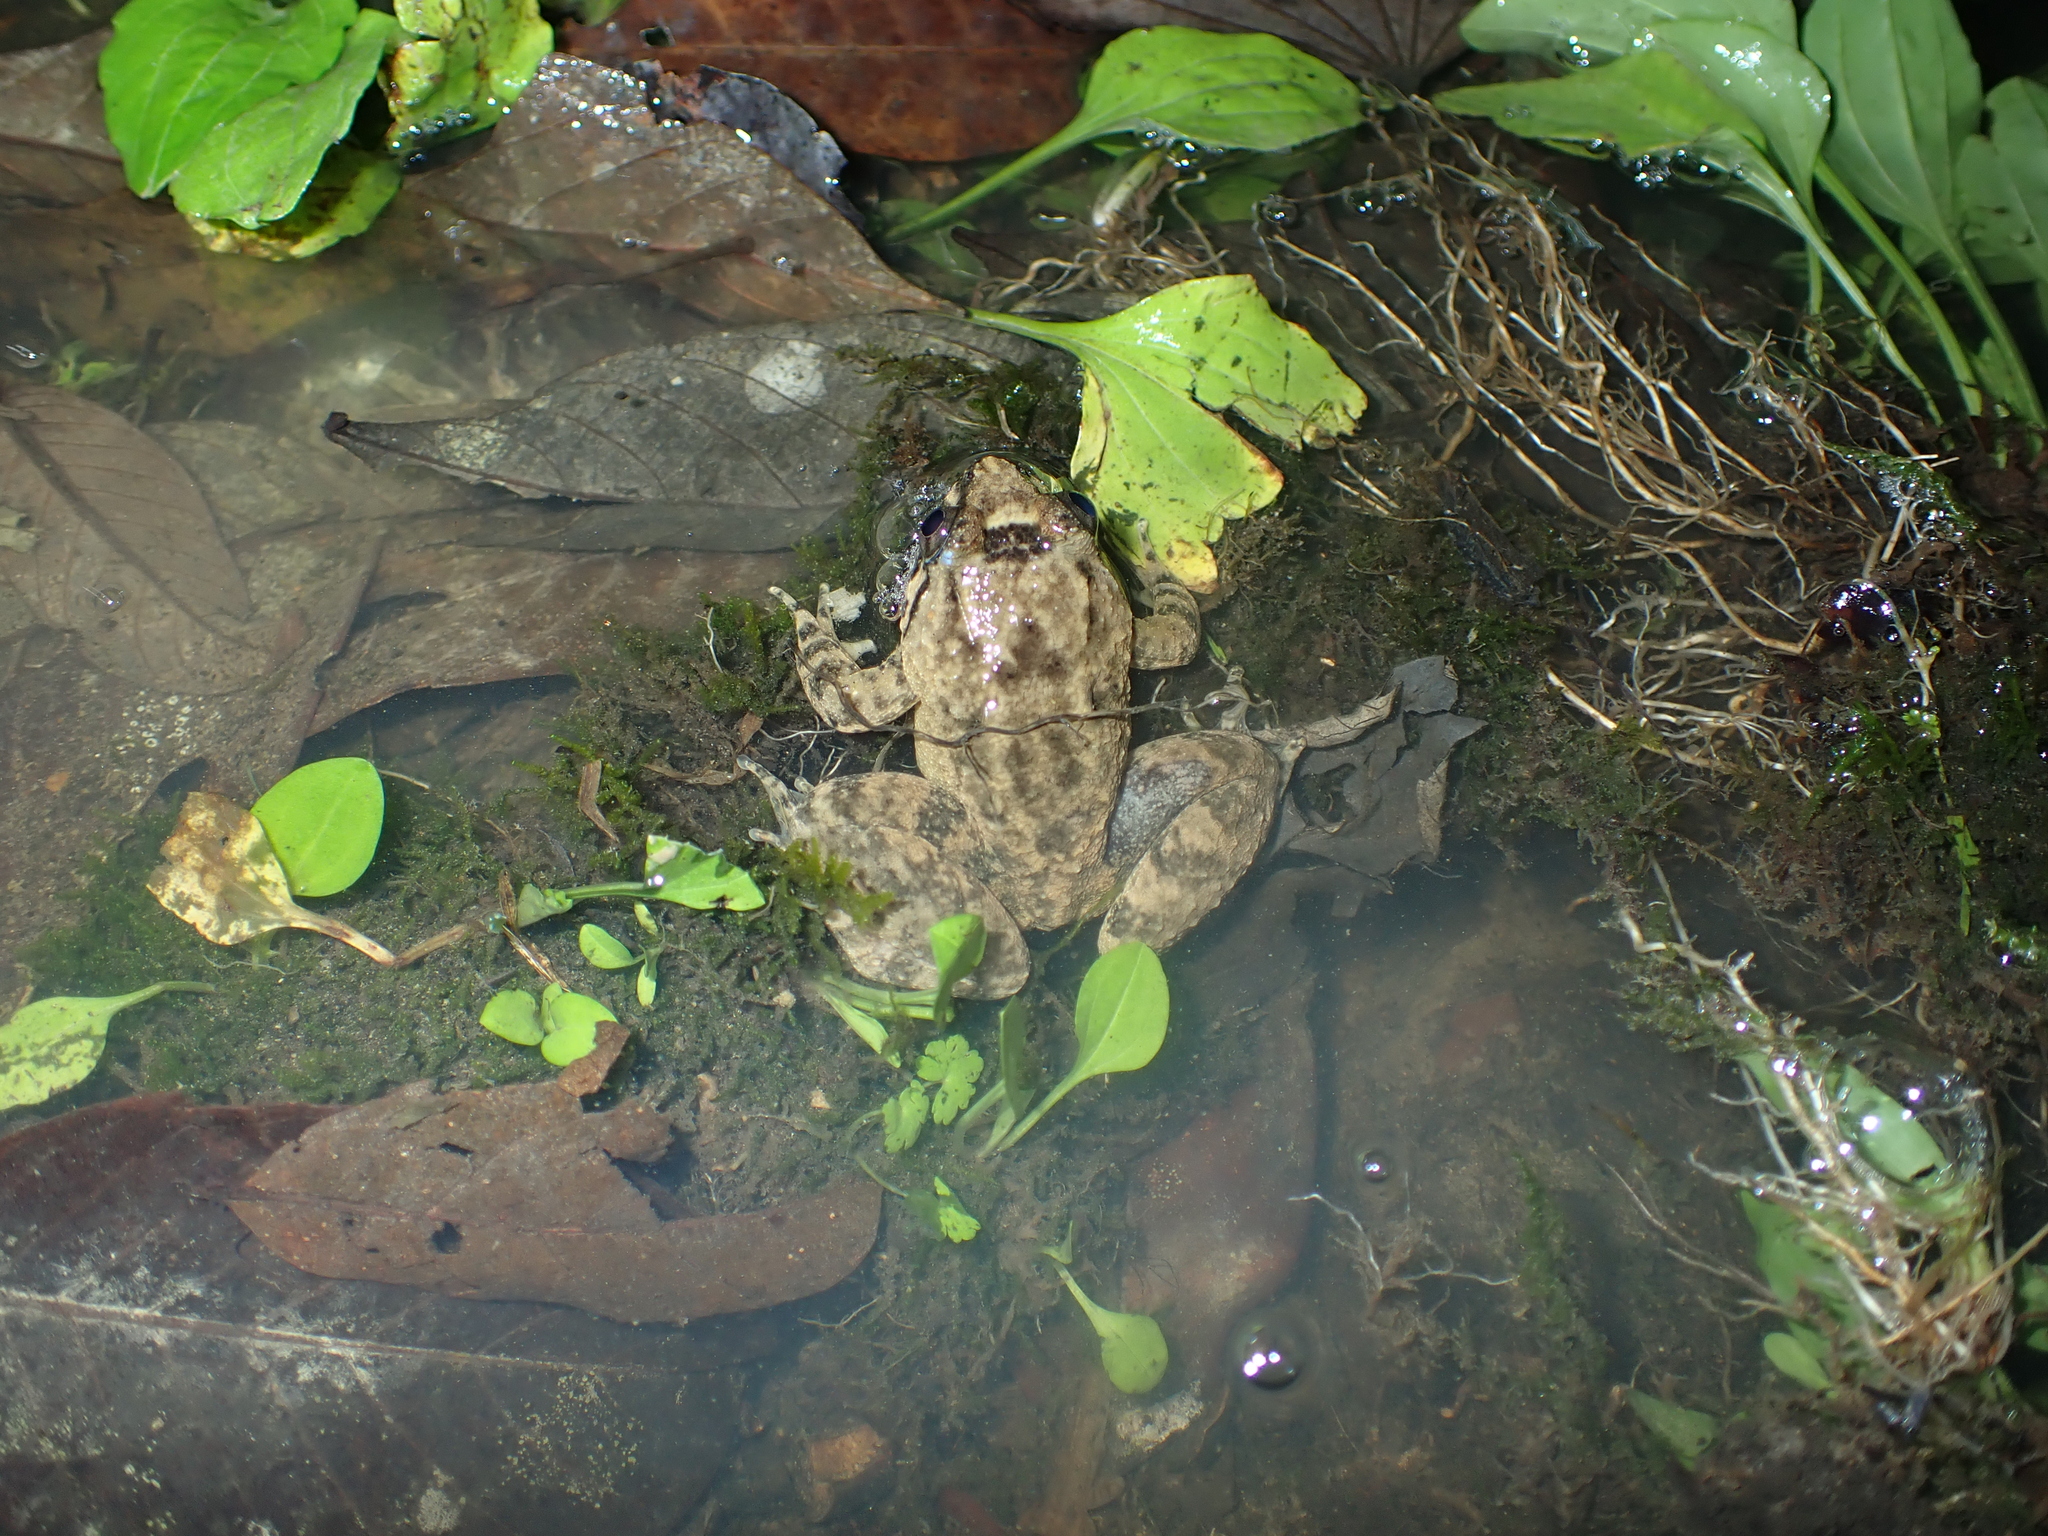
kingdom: Animalia
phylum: Chordata
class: Amphibia
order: Anura
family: Dicroglossidae
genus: Limnonectes
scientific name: Limnonectes kong
